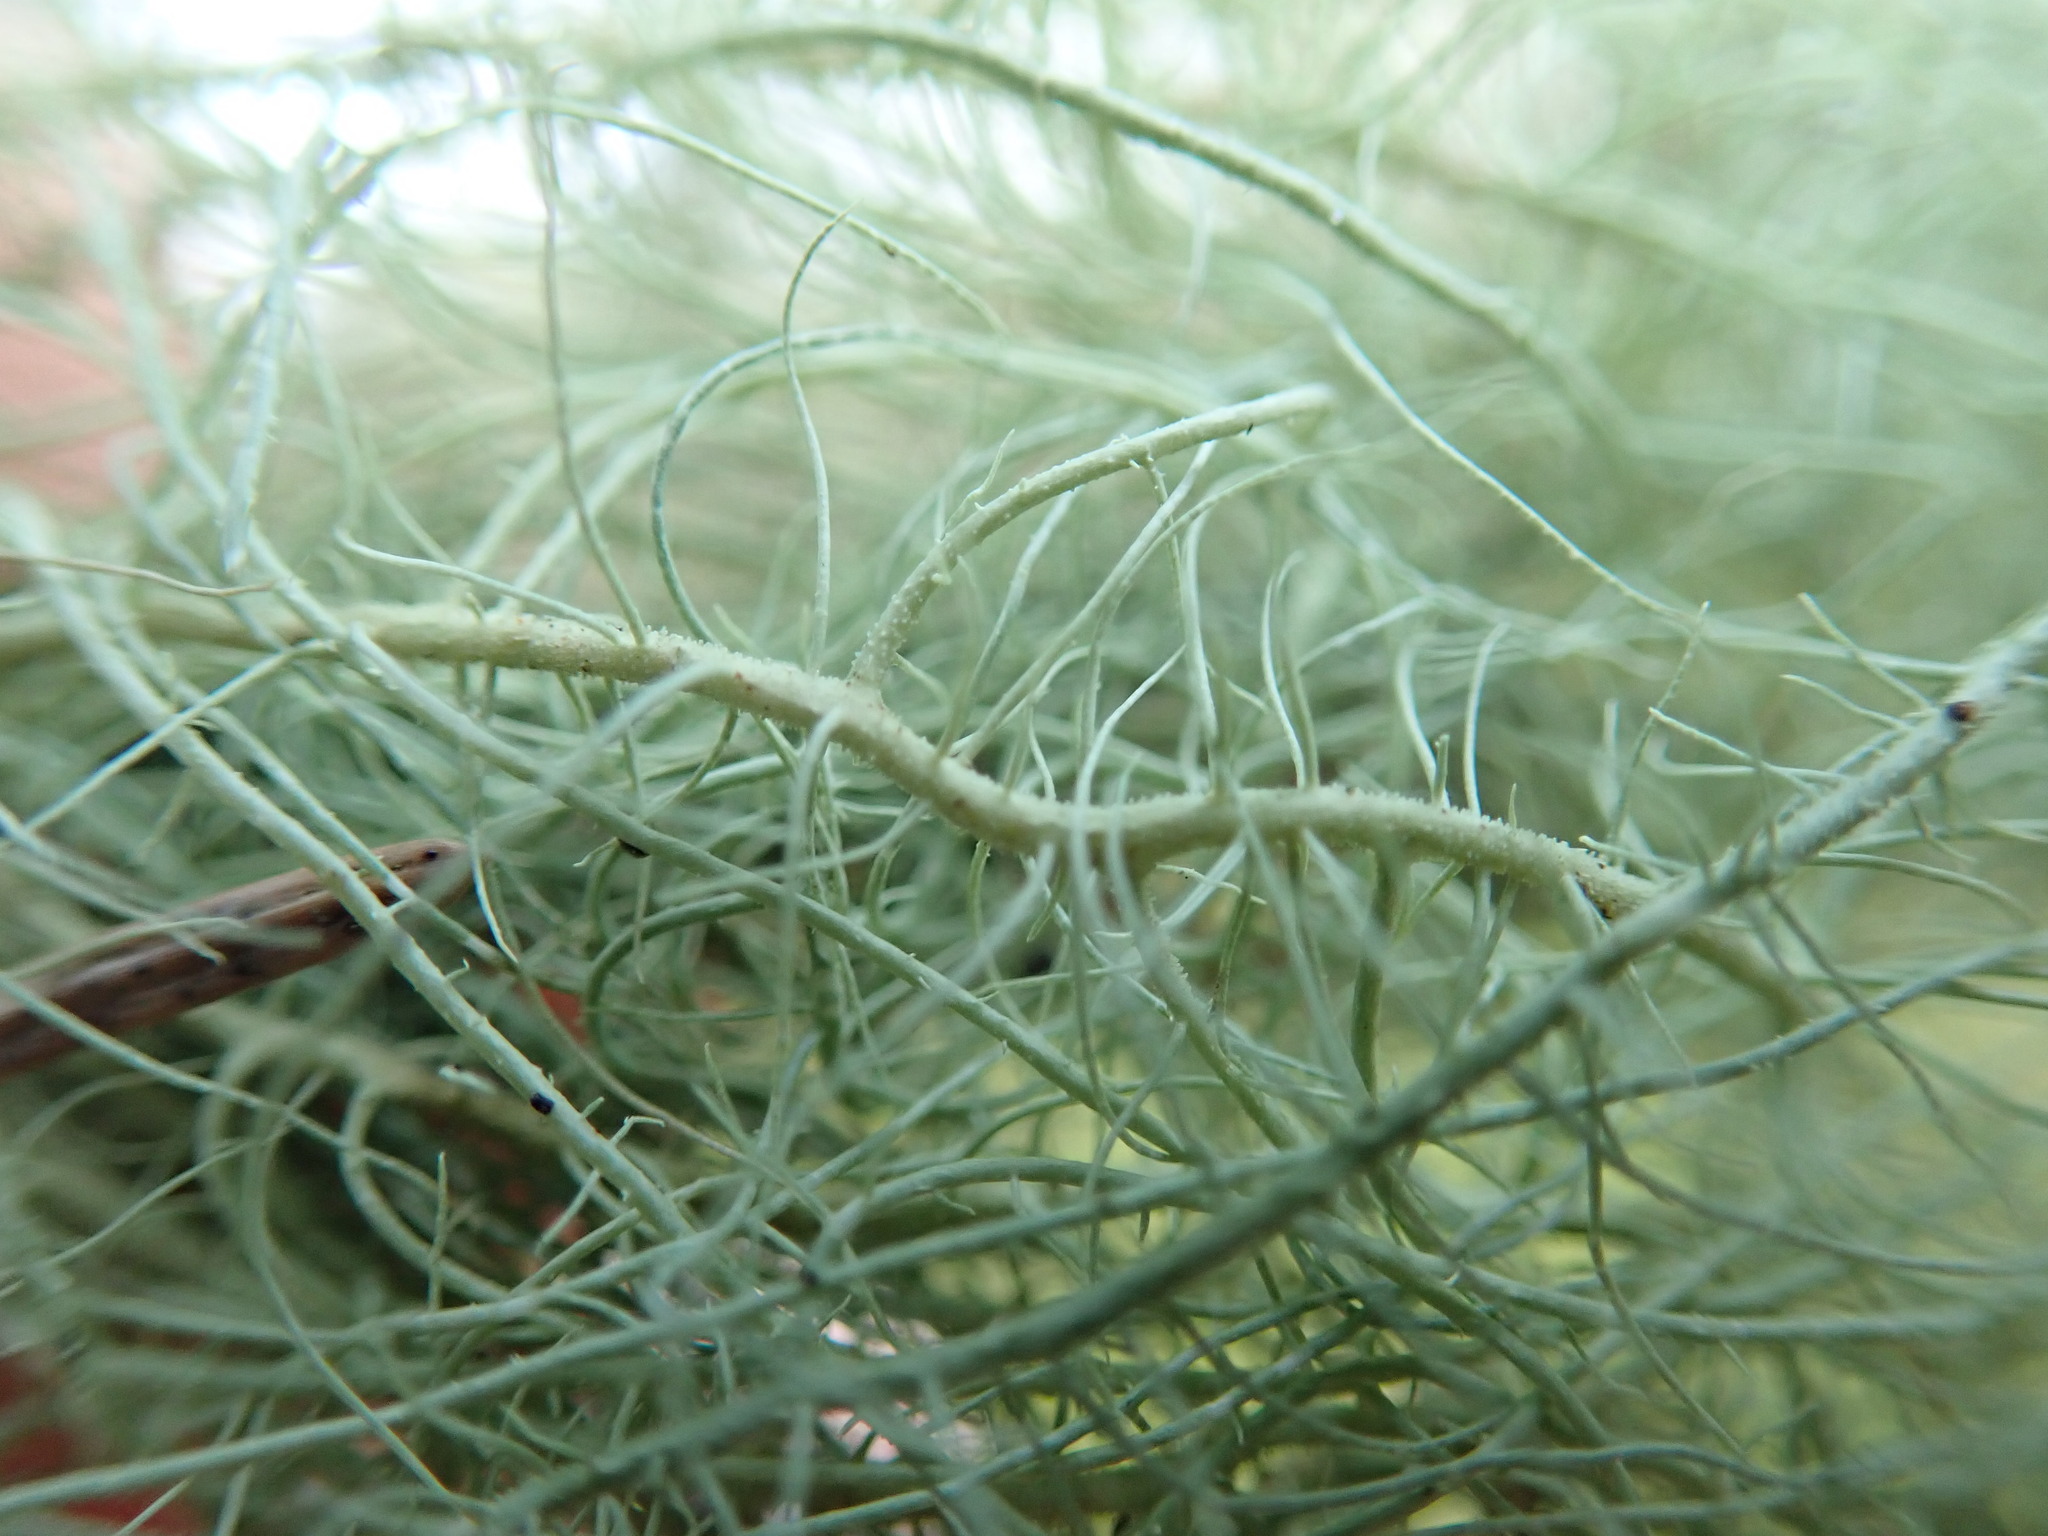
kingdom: Fungi
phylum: Ascomycota
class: Lecanoromycetes
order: Lecanorales
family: Parmeliaceae
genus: Usnea
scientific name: Usnea dasopoga
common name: Fishbone beard lichen
